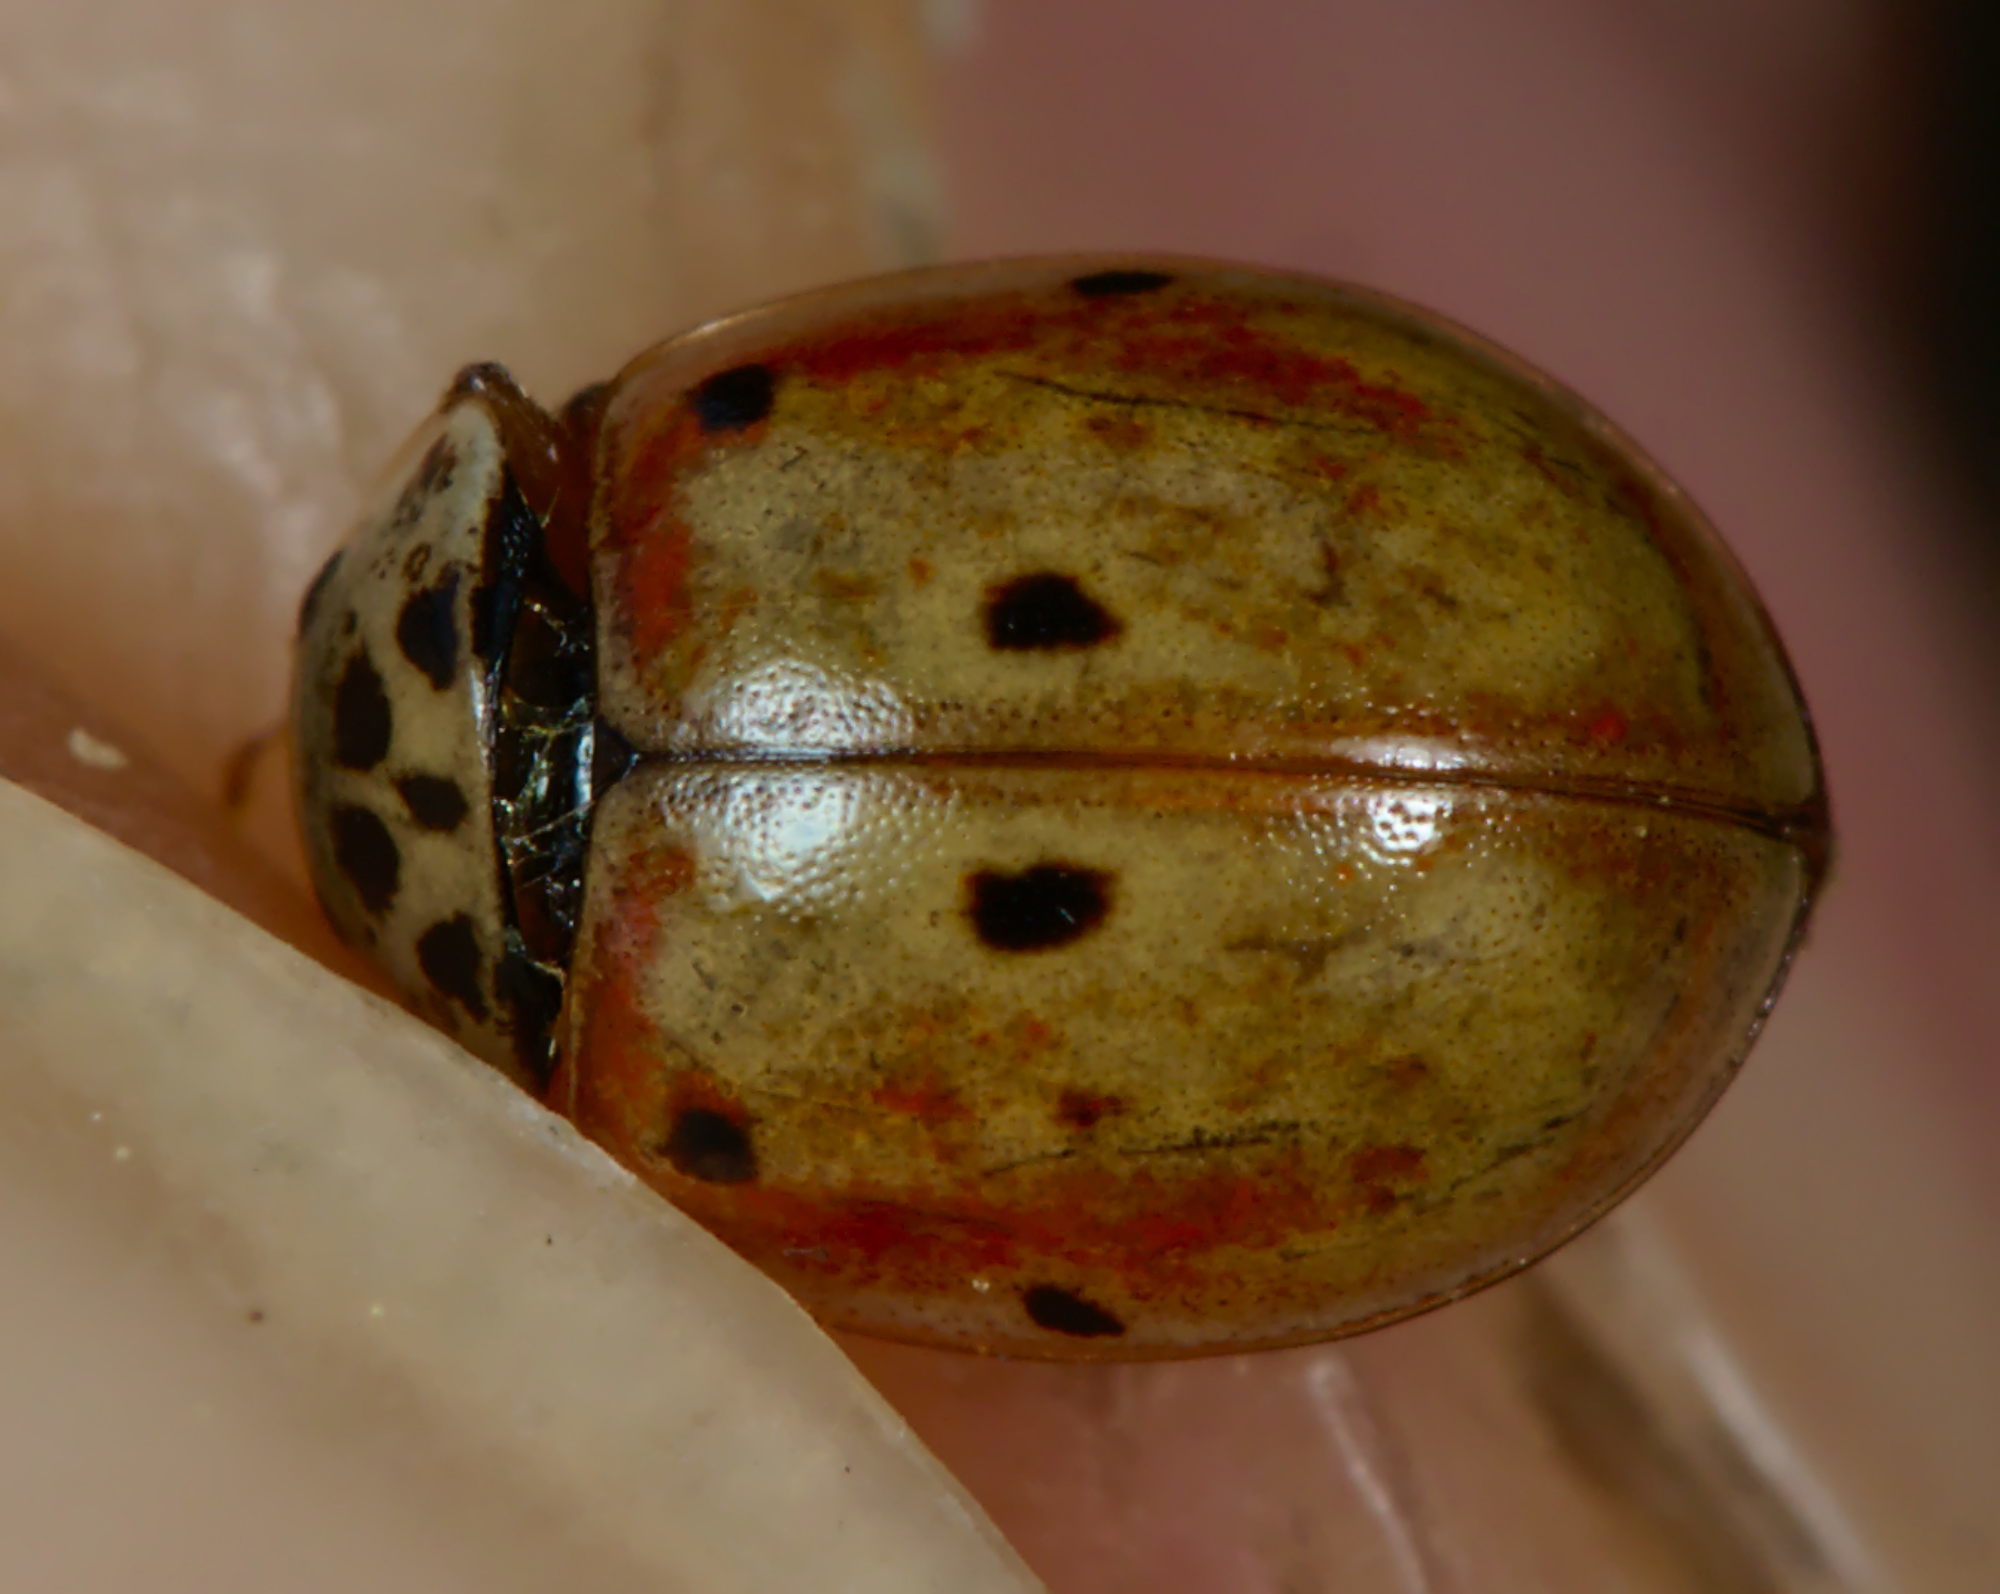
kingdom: Animalia
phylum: Arthropoda
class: Insecta
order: Coleoptera
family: Coccinellidae
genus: Adalia
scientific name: Adalia decempunctata
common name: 10-spot ladybird
